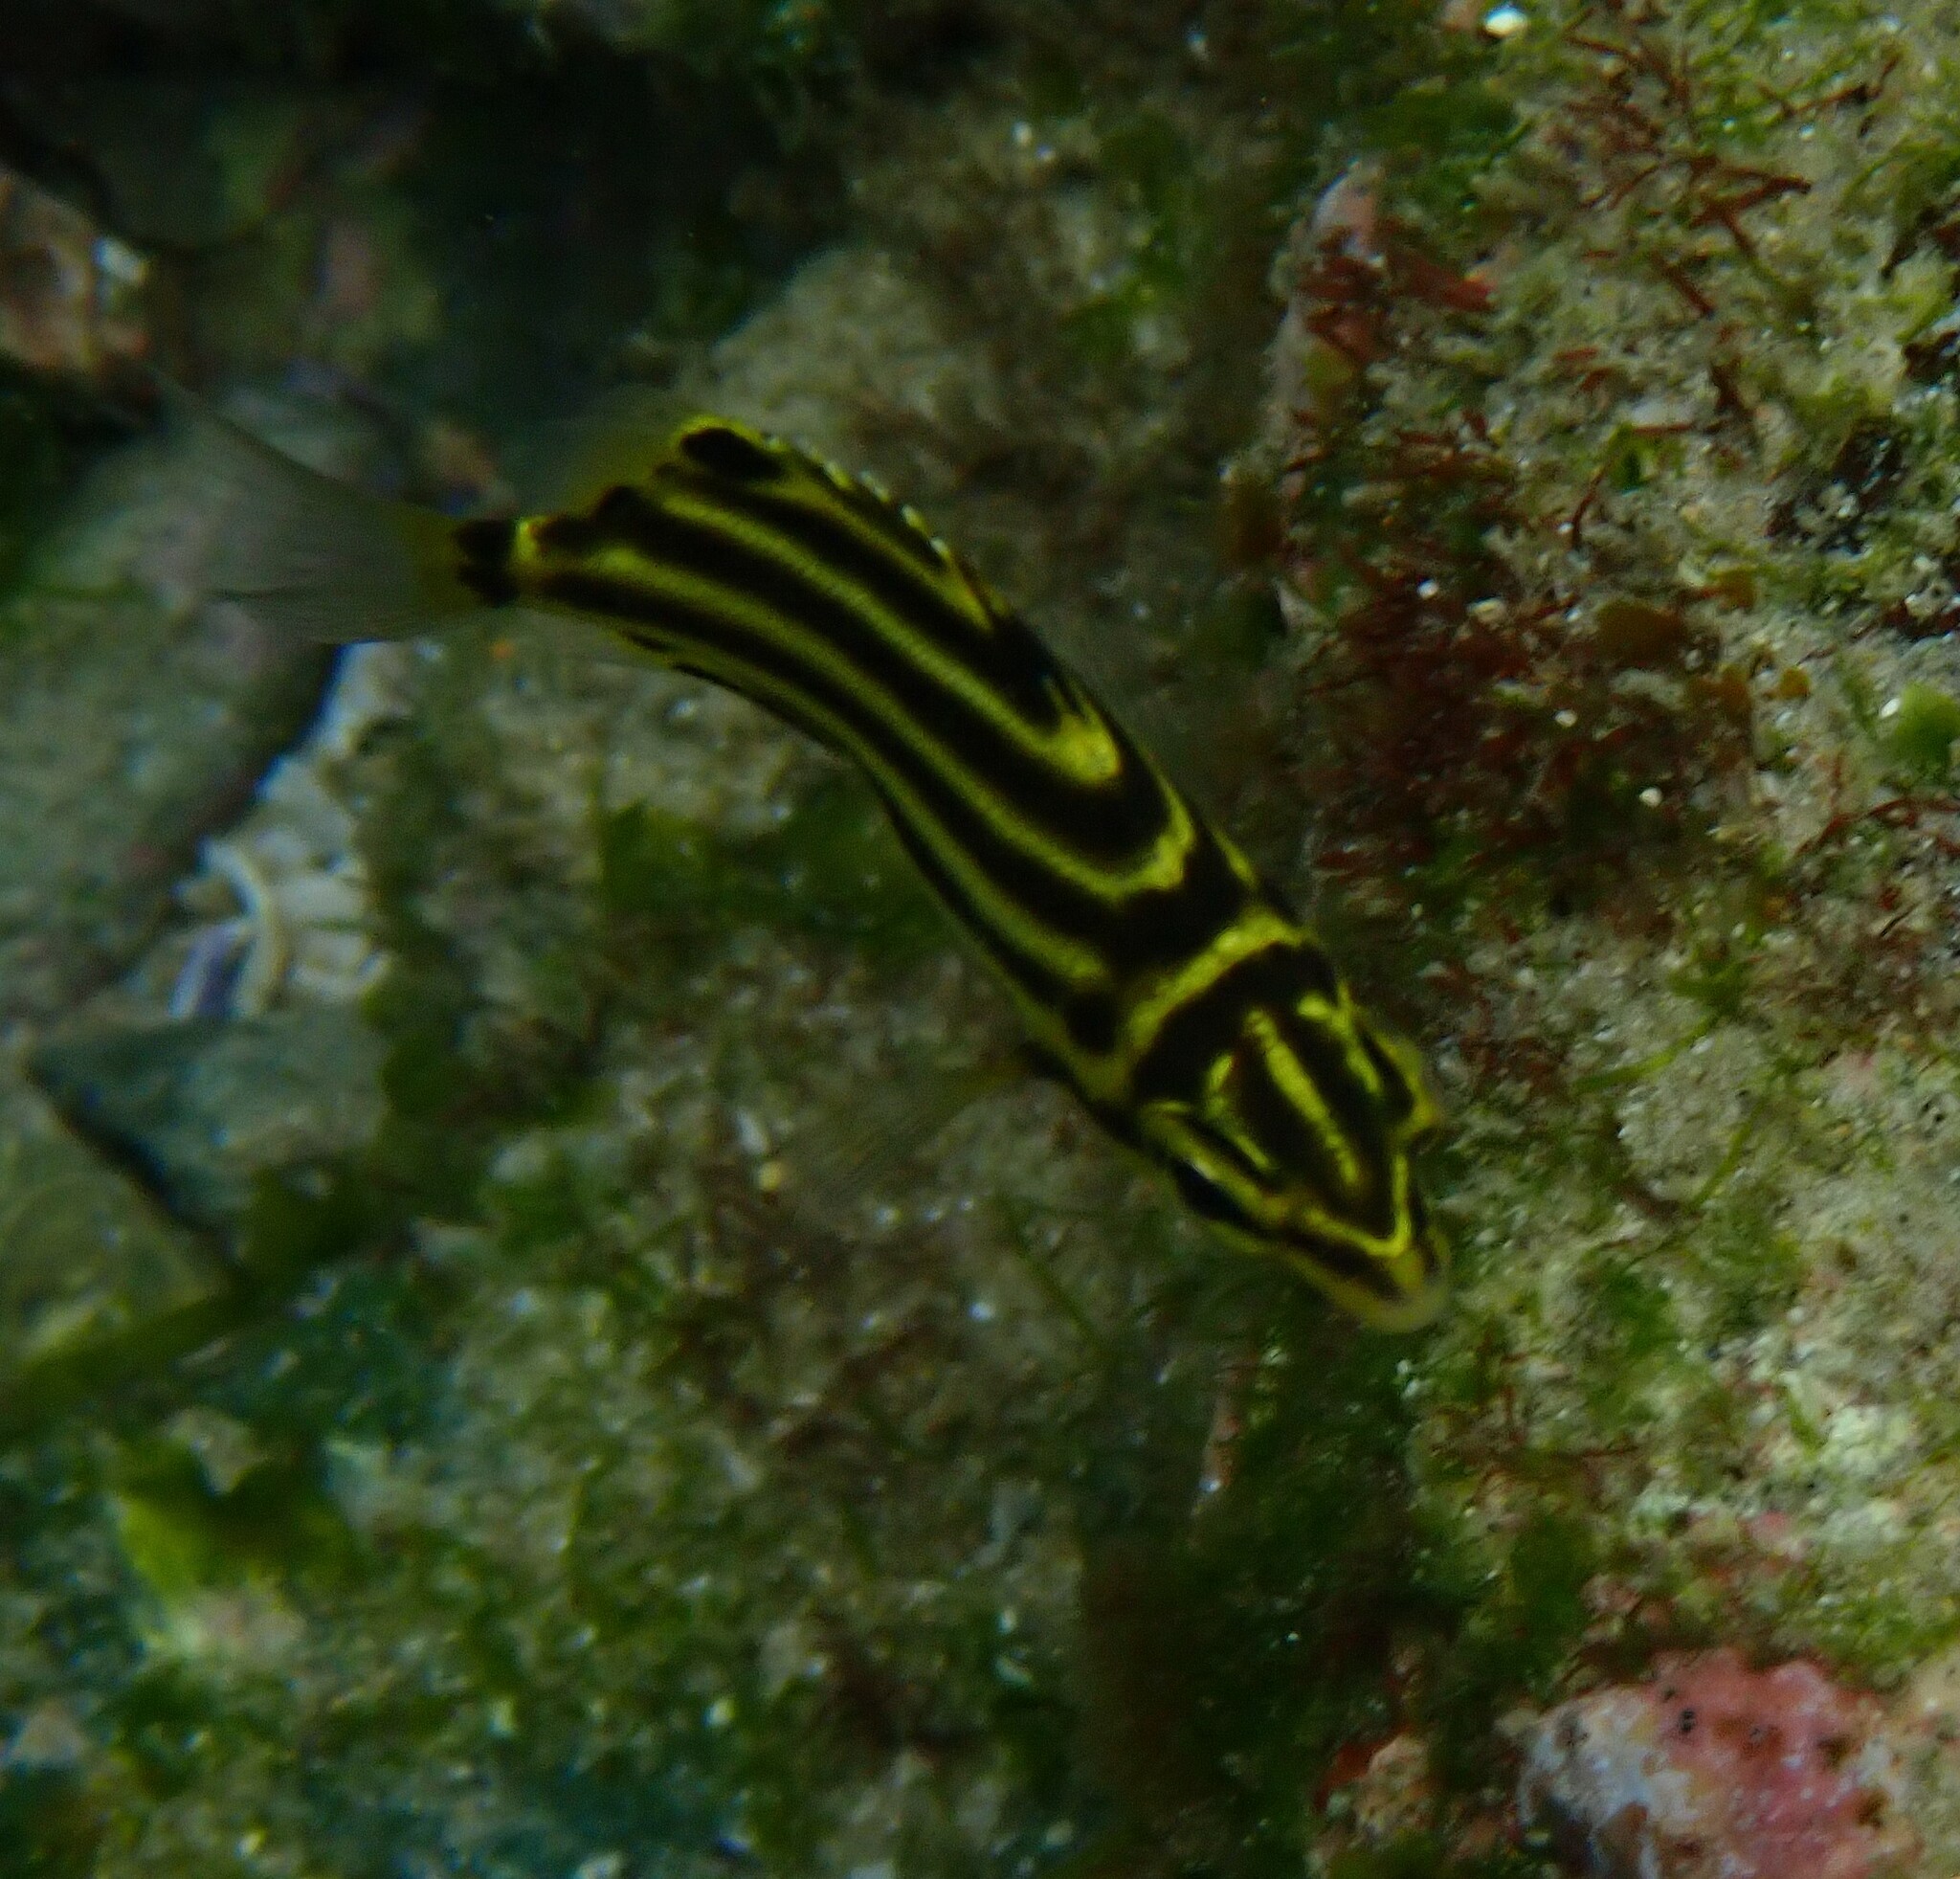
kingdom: Animalia
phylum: Chordata
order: Perciformes
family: Kyphosidae
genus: Microcanthus
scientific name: Microcanthus joyceae
